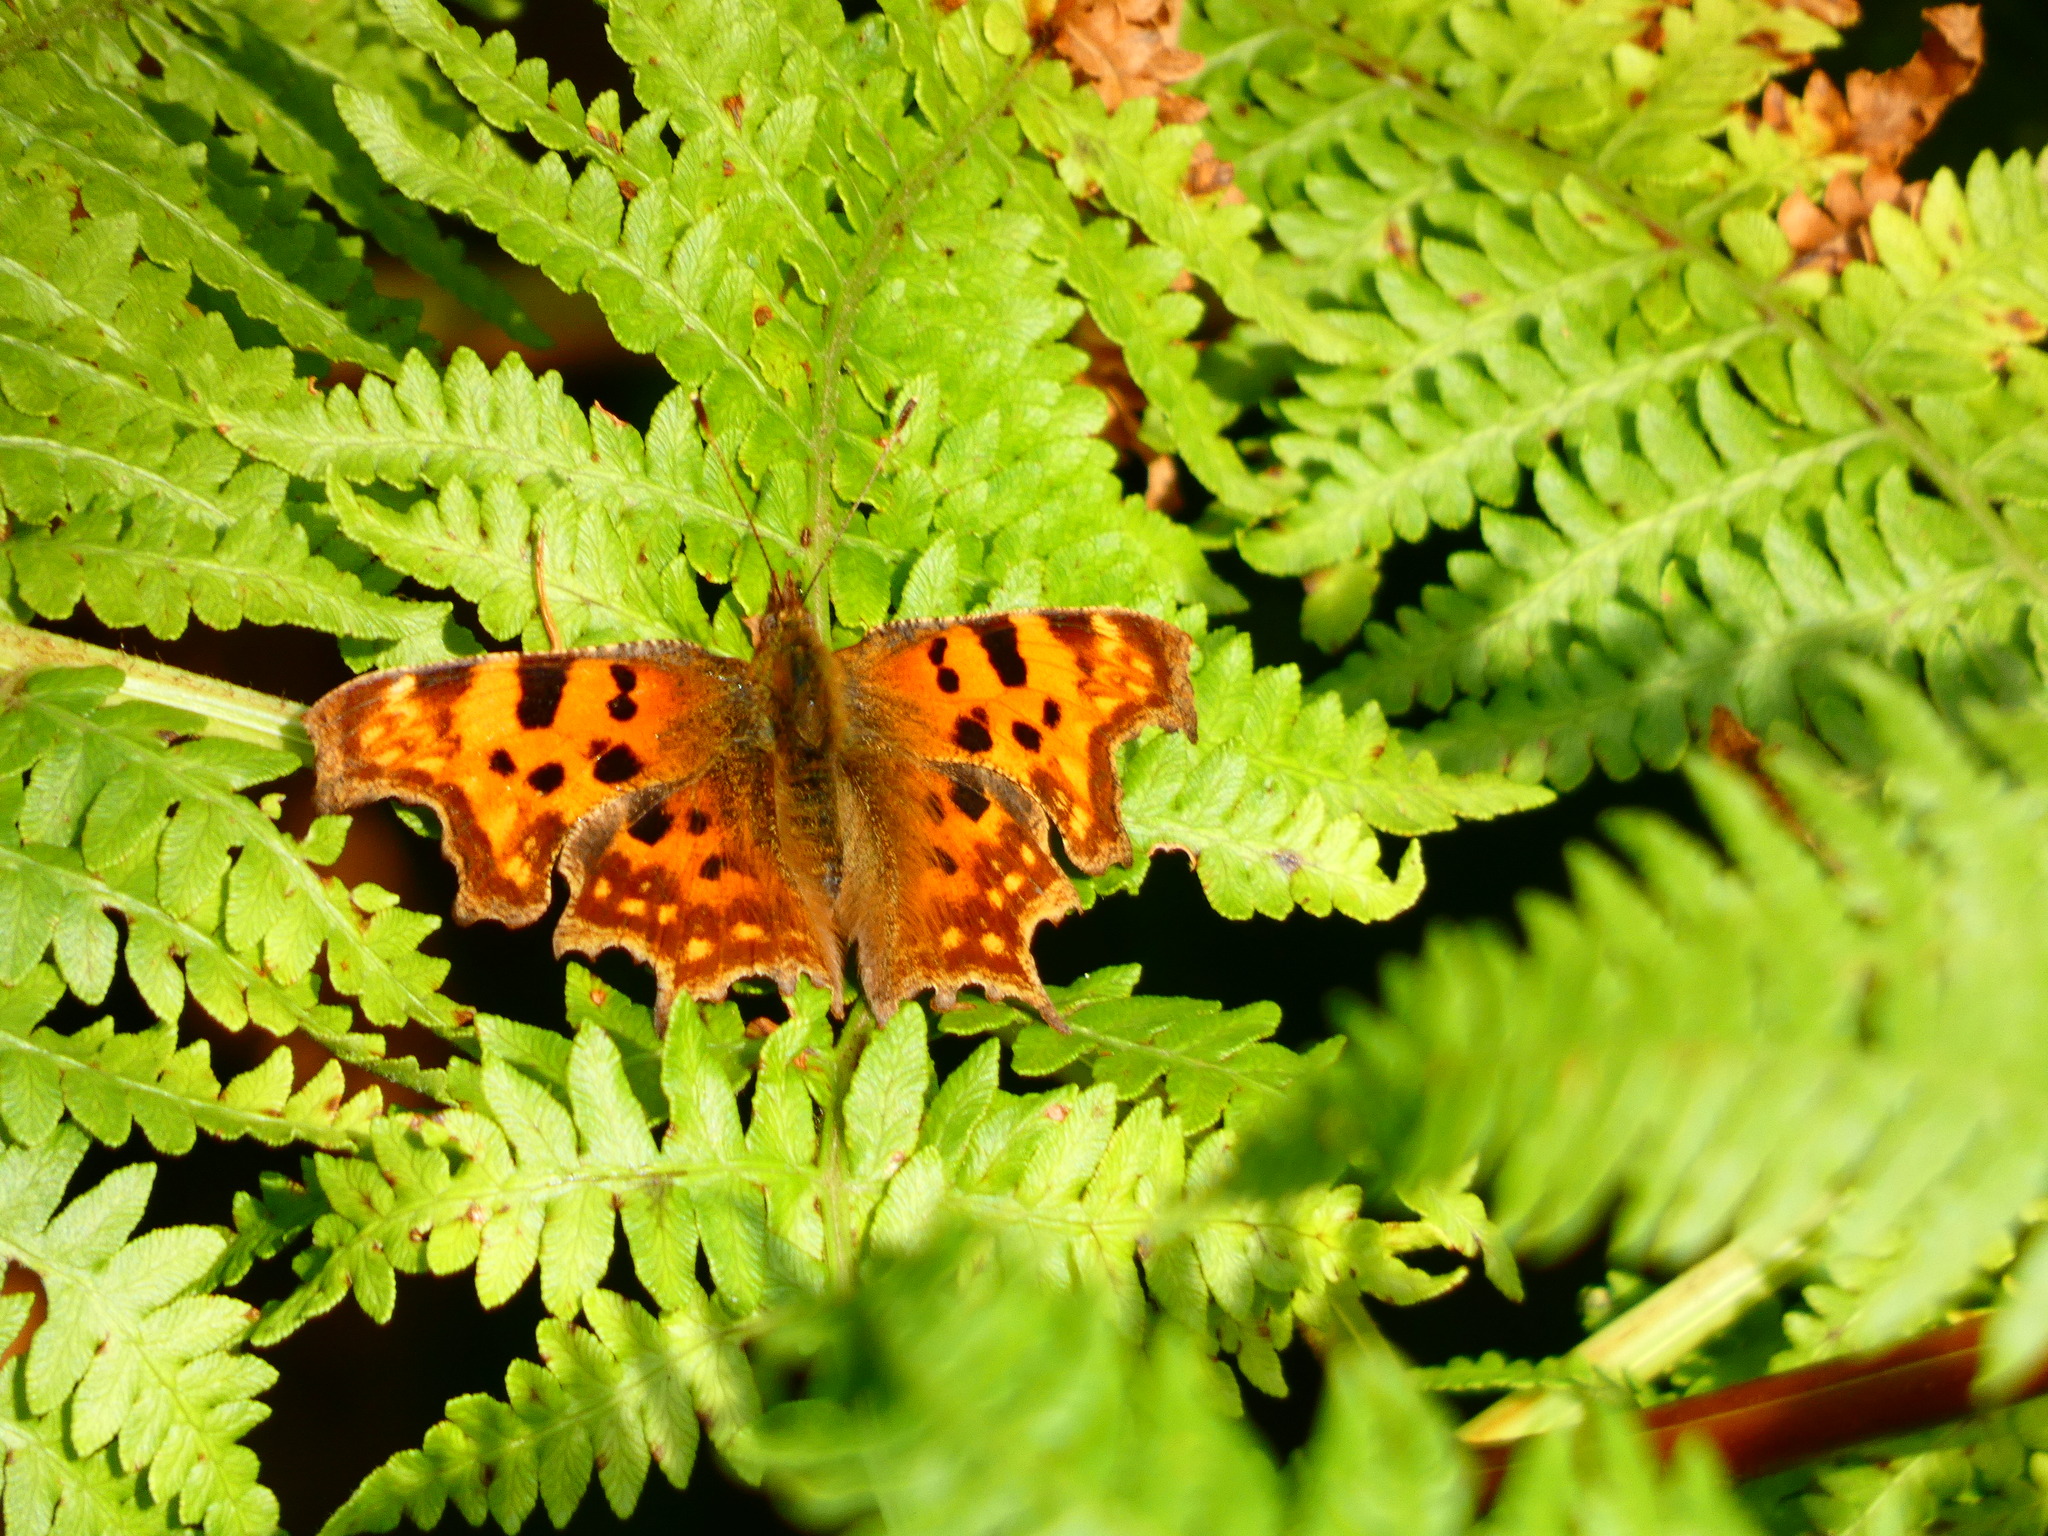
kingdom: Animalia
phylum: Arthropoda
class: Insecta
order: Lepidoptera
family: Nymphalidae
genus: Polygonia
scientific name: Polygonia c-album
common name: Comma
